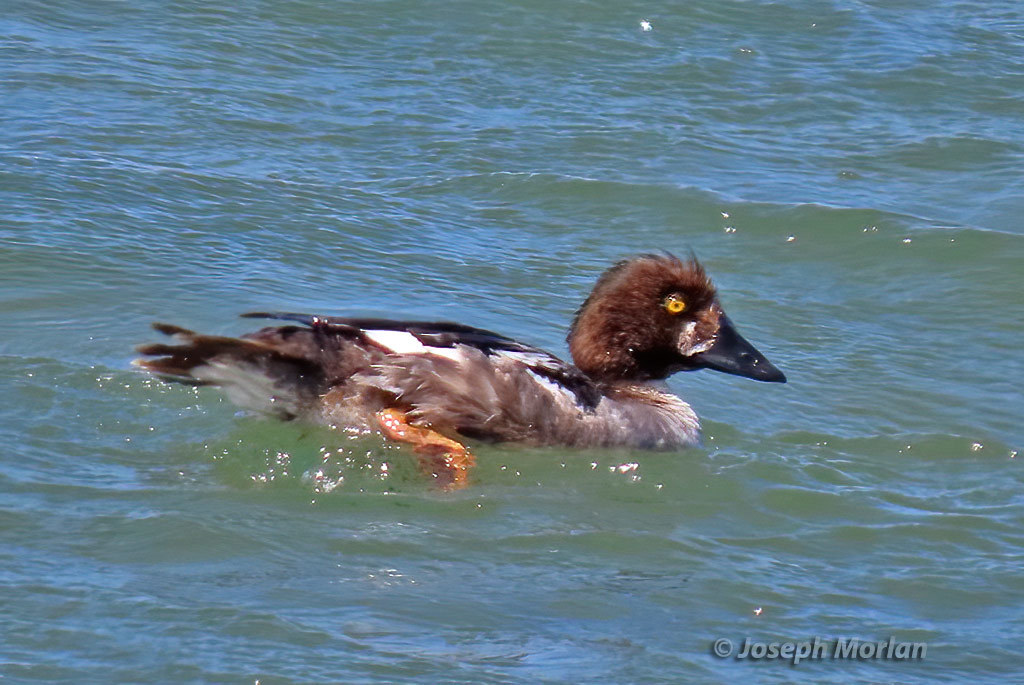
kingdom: Animalia
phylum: Chordata
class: Aves
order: Anseriformes
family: Anatidae
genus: Bucephala
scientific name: Bucephala clangula
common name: Common goldeneye
